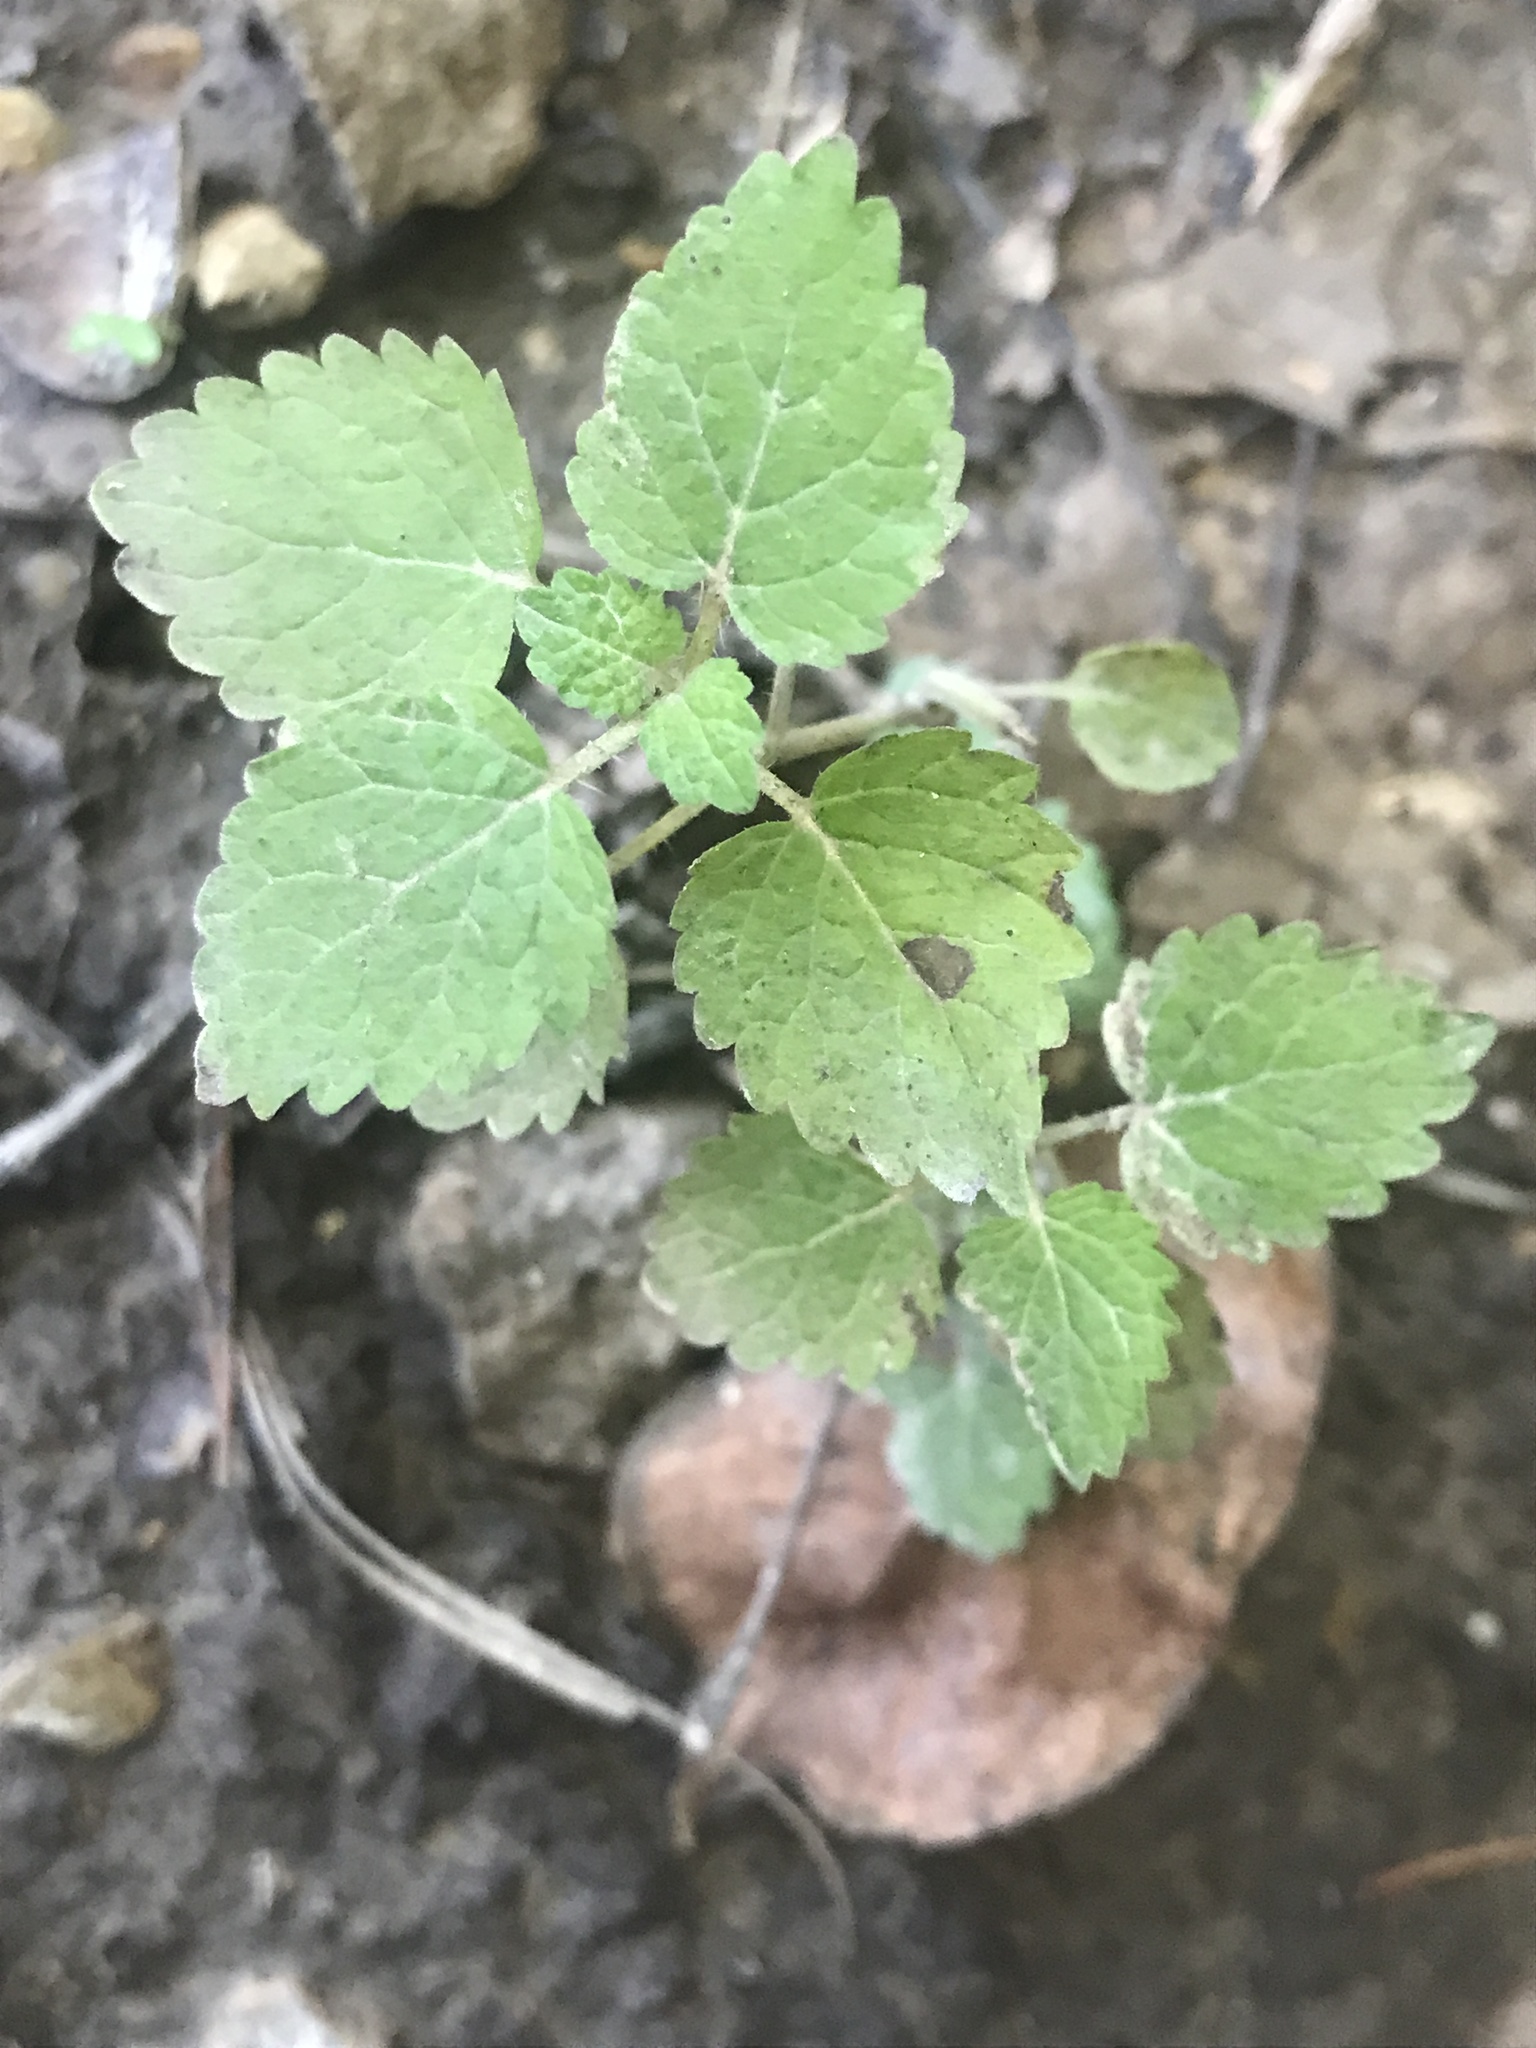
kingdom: Plantae
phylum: Tracheophyta
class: Magnoliopsida
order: Lamiales
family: Lamiaceae
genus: Melissa
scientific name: Melissa officinalis
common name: Balm
